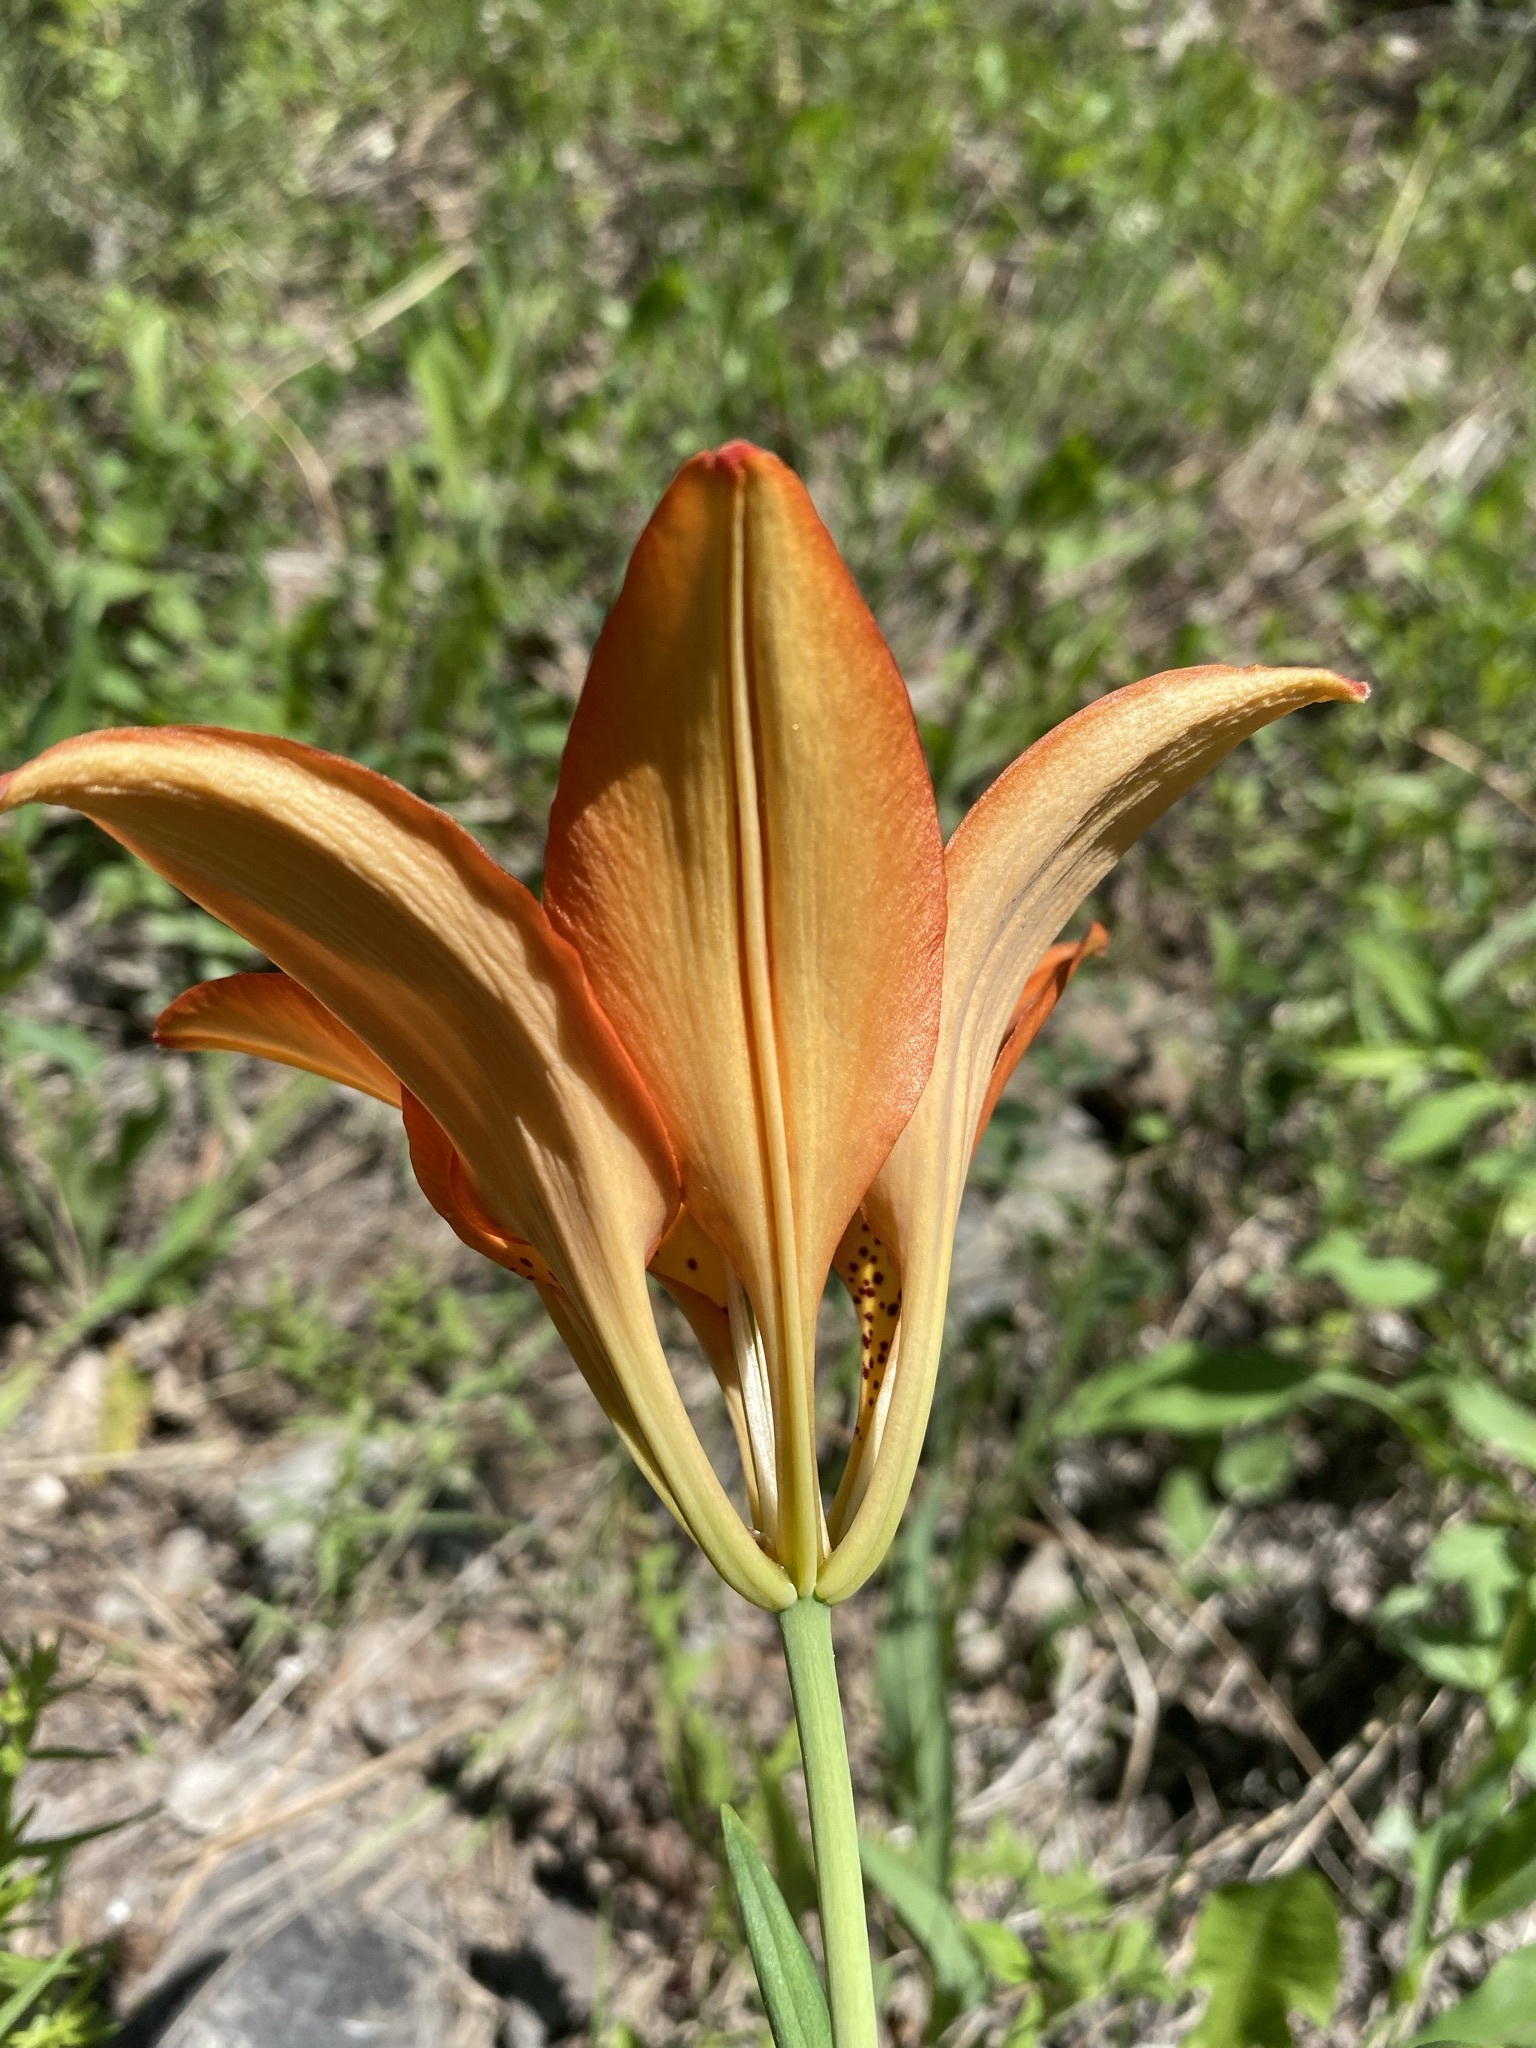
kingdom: Plantae
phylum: Tracheophyta
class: Liliopsida
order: Liliales
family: Liliaceae
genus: Lilium
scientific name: Lilium philadelphicum
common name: Red lily
